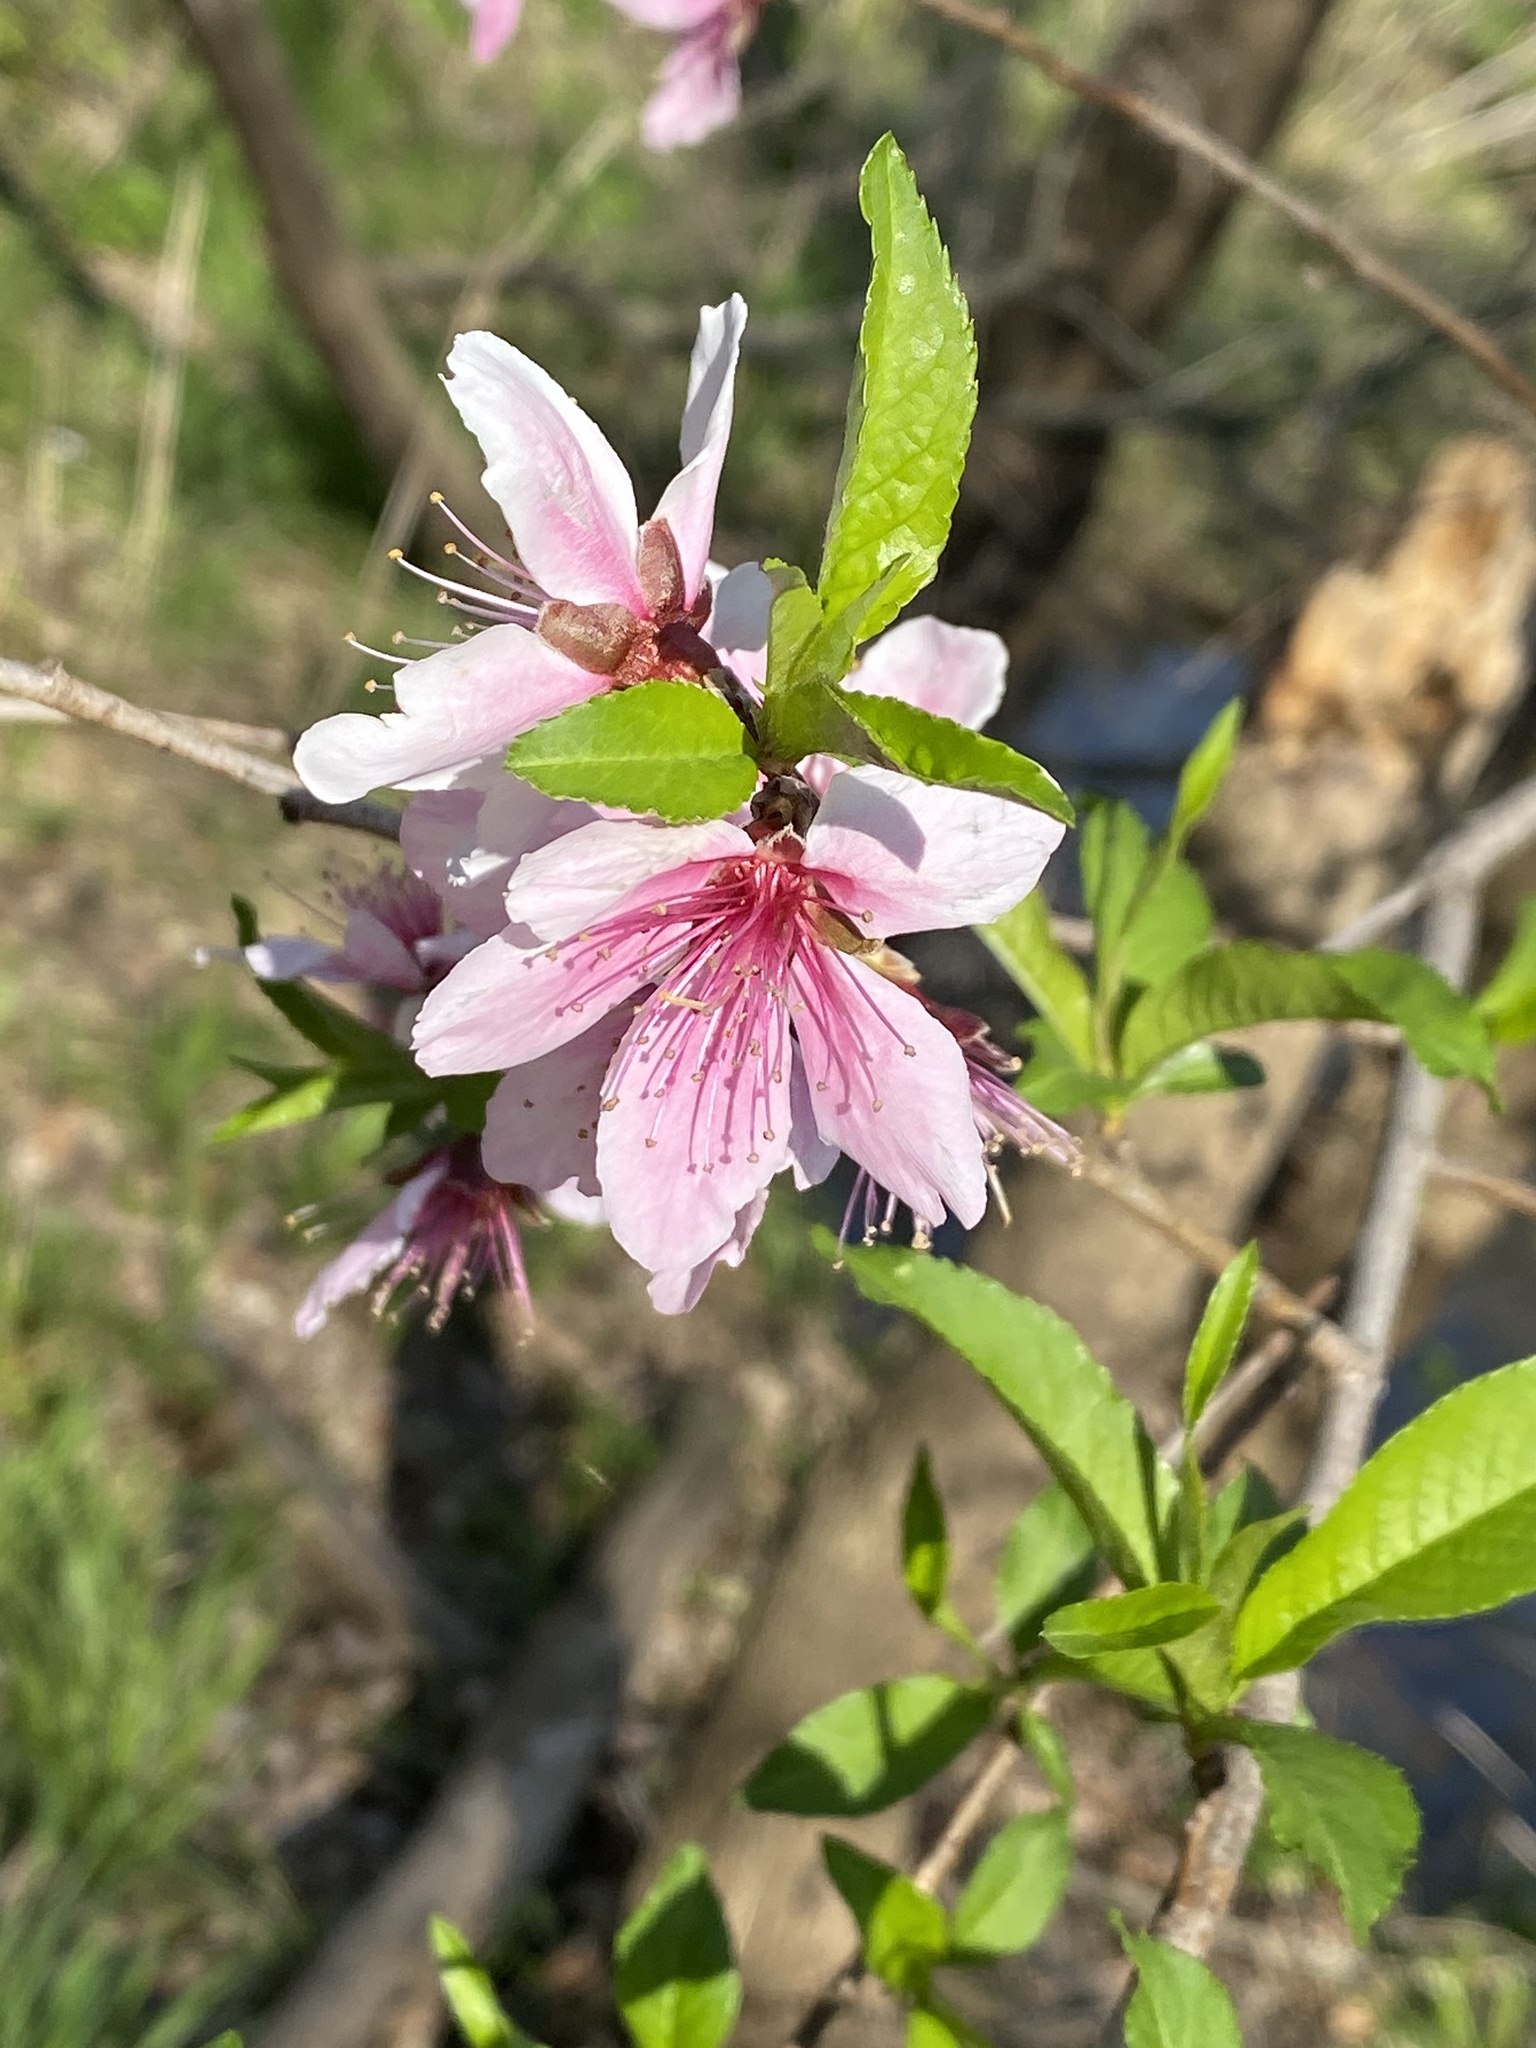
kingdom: Plantae
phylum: Tracheophyta
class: Magnoliopsida
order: Rosales
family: Rosaceae
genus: Prunus
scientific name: Prunus persica
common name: Peach
